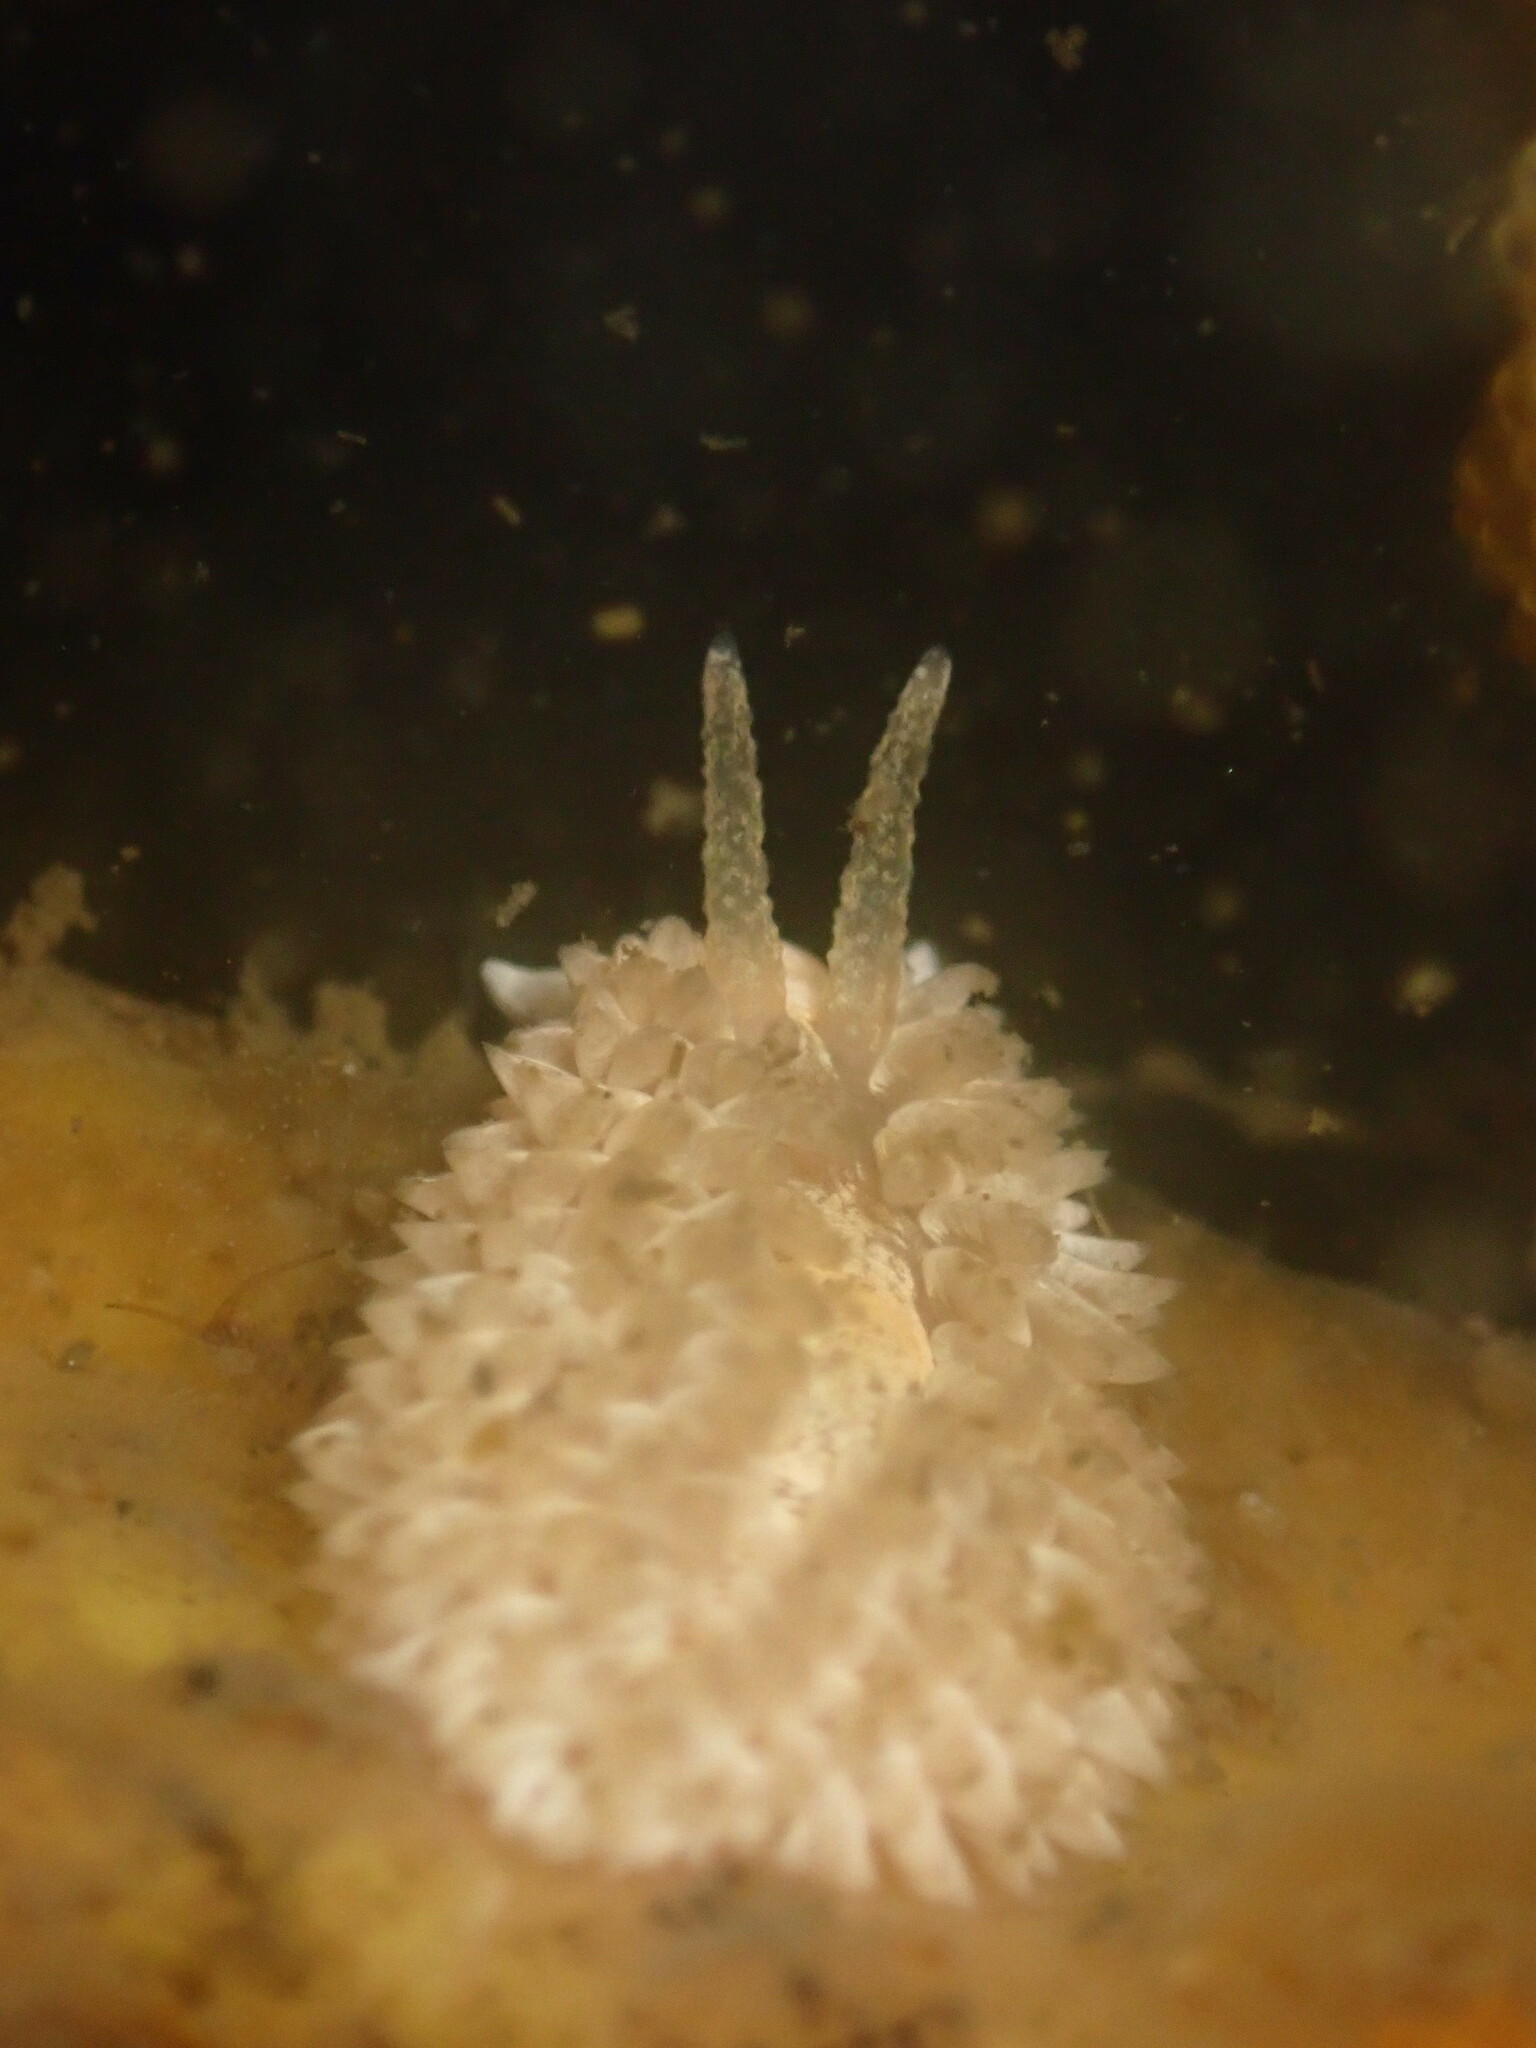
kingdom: Animalia
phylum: Mollusca
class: Gastropoda
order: Nudibranchia
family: Aeolidiidae
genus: Aeolidia
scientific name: Aeolidia loui
